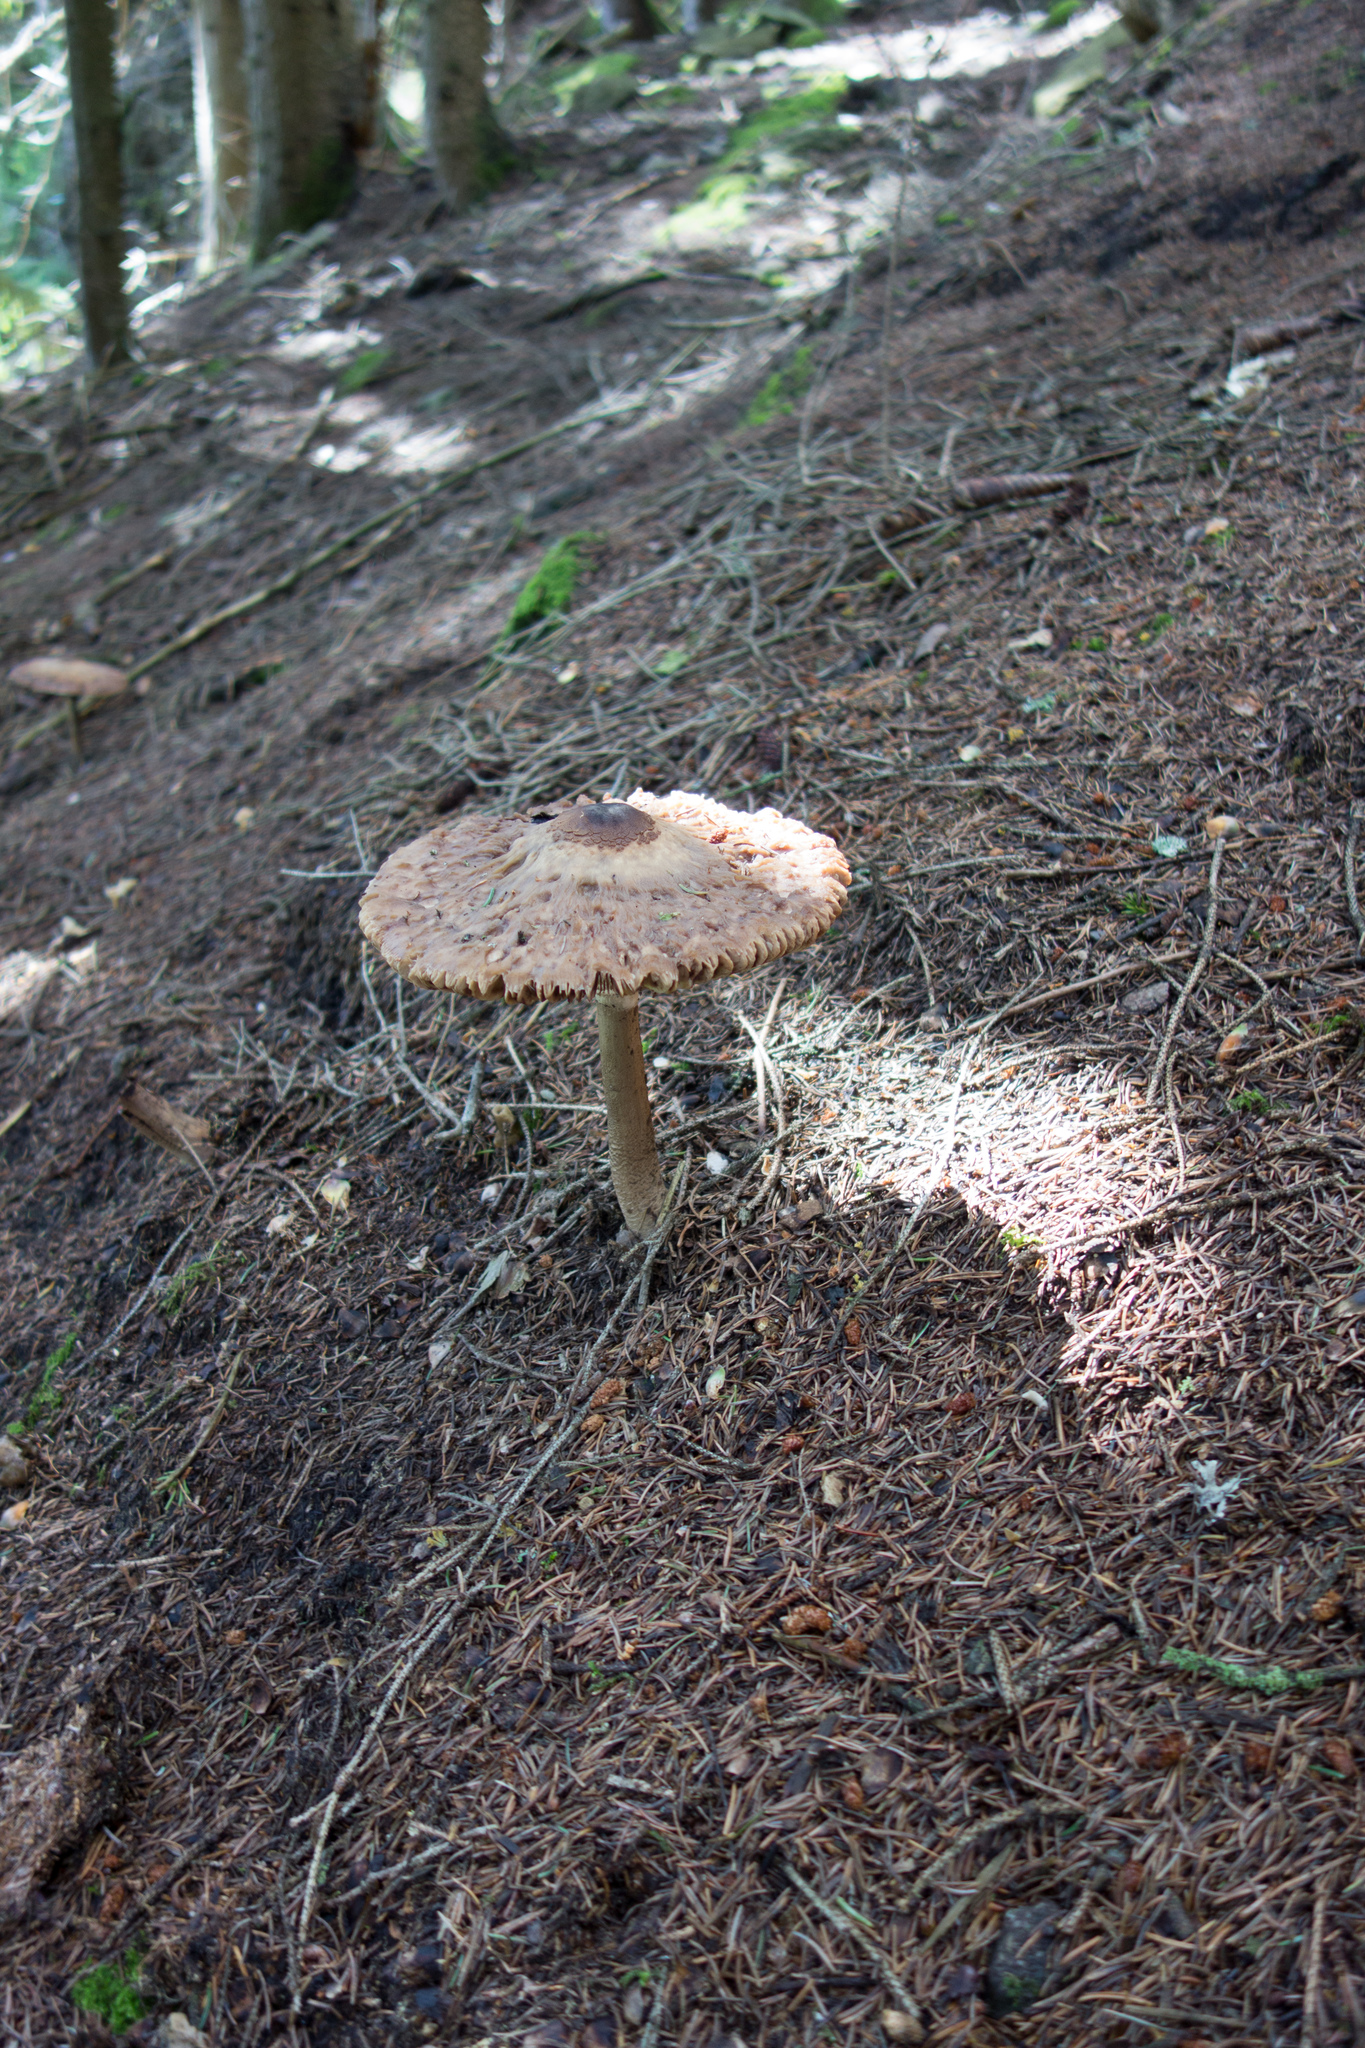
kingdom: Fungi
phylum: Basidiomycota
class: Agaricomycetes
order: Agaricales
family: Agaricaceae
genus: Macrolepiota
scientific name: Macrolepiota procera
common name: Parasol
